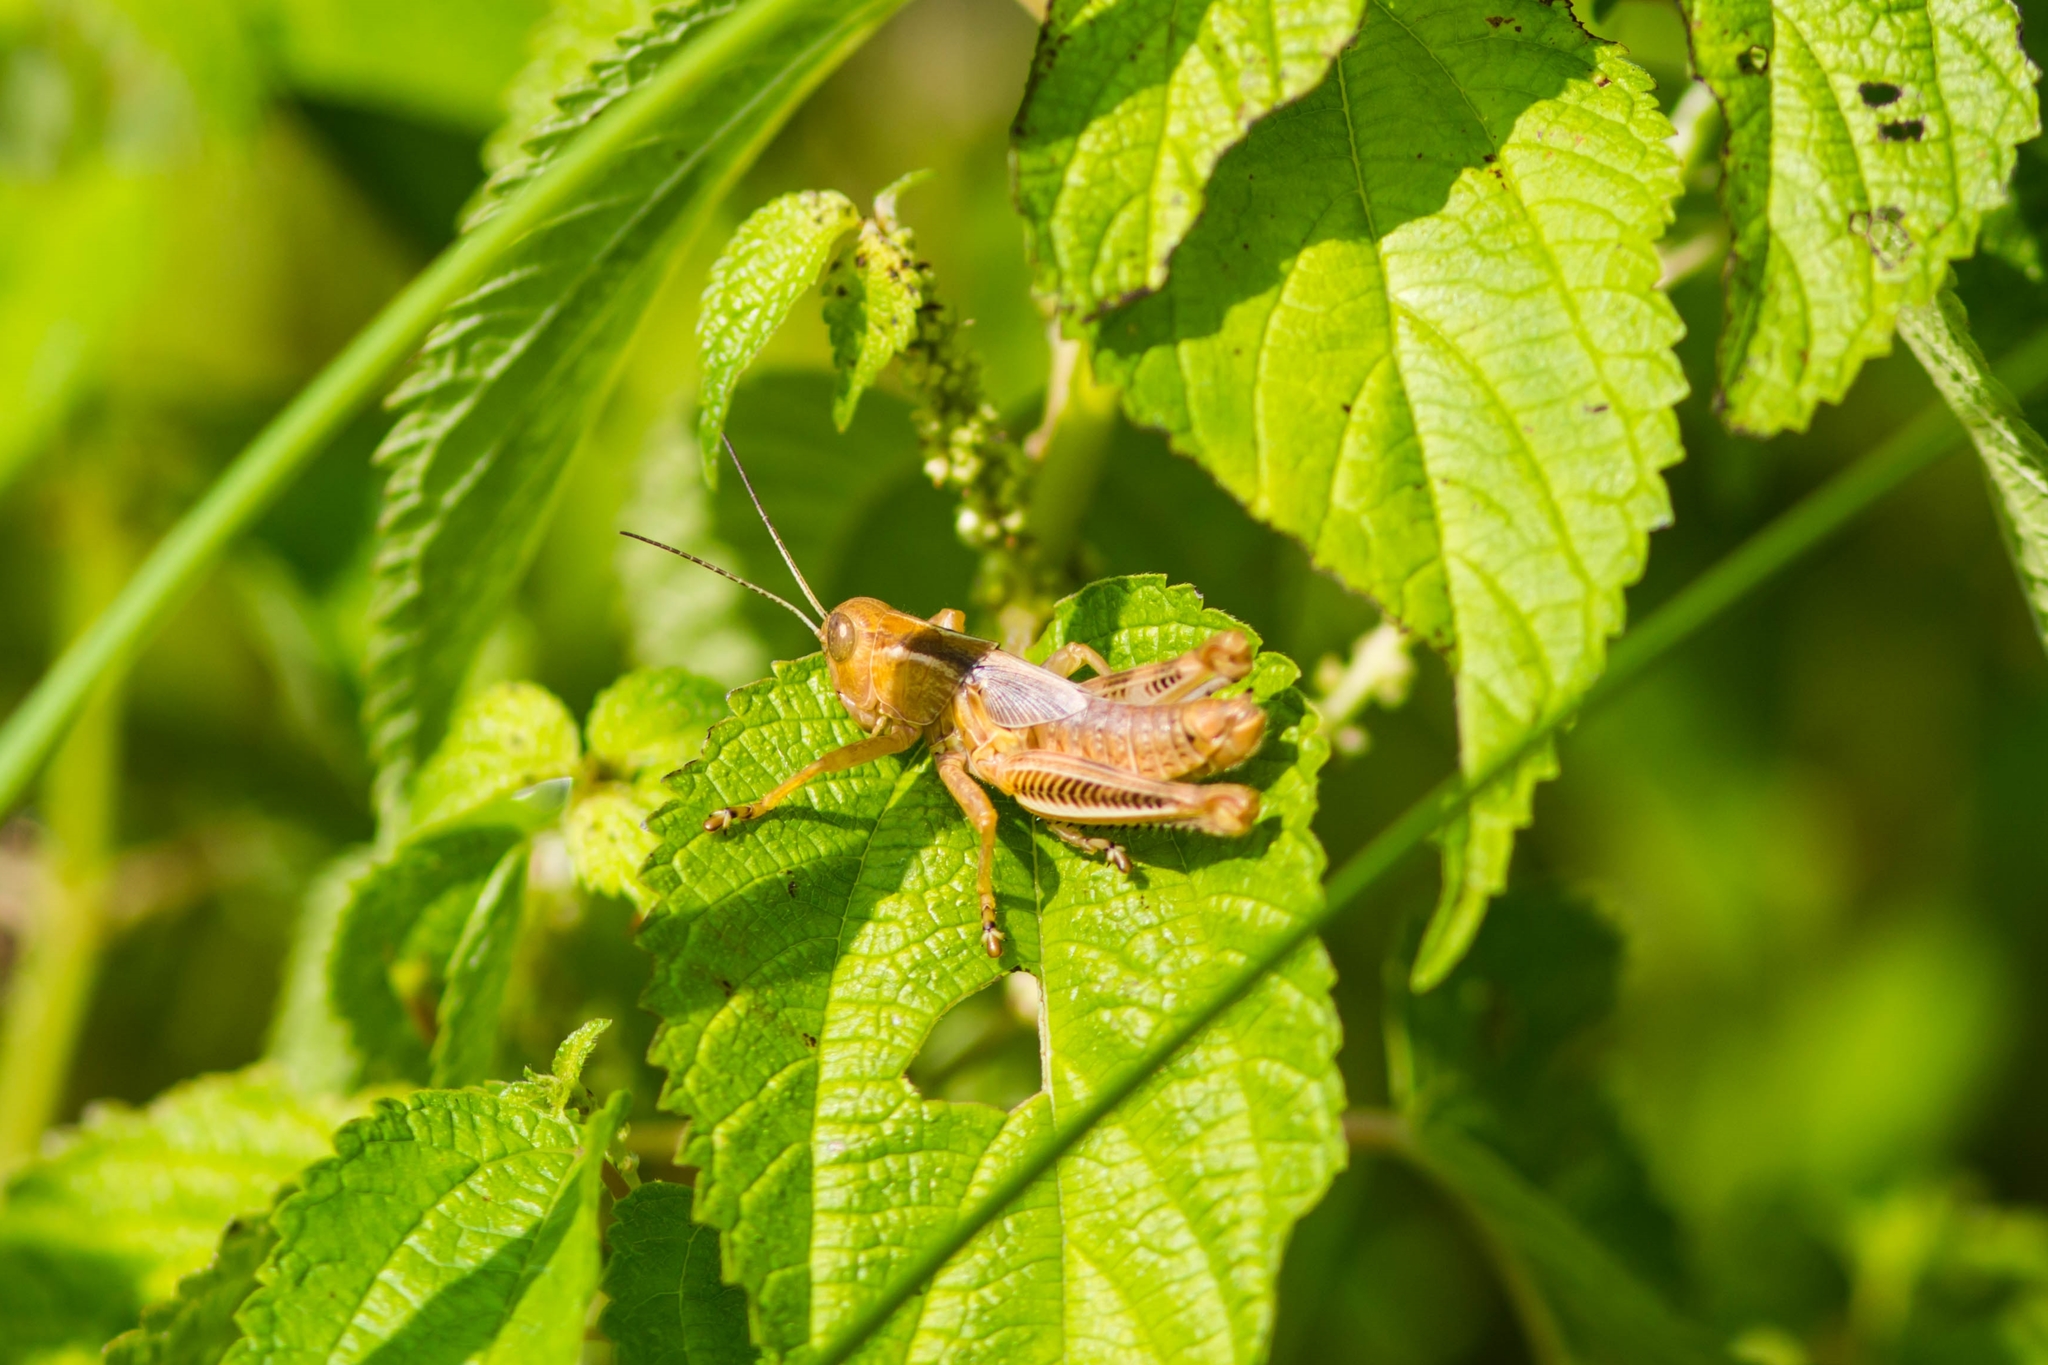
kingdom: Animalia
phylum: Arthropoda
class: Insecta
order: Orthoptera
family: Acrididae
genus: Melanoplus
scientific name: Melanoplus differentialis
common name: Differential grasshopper
